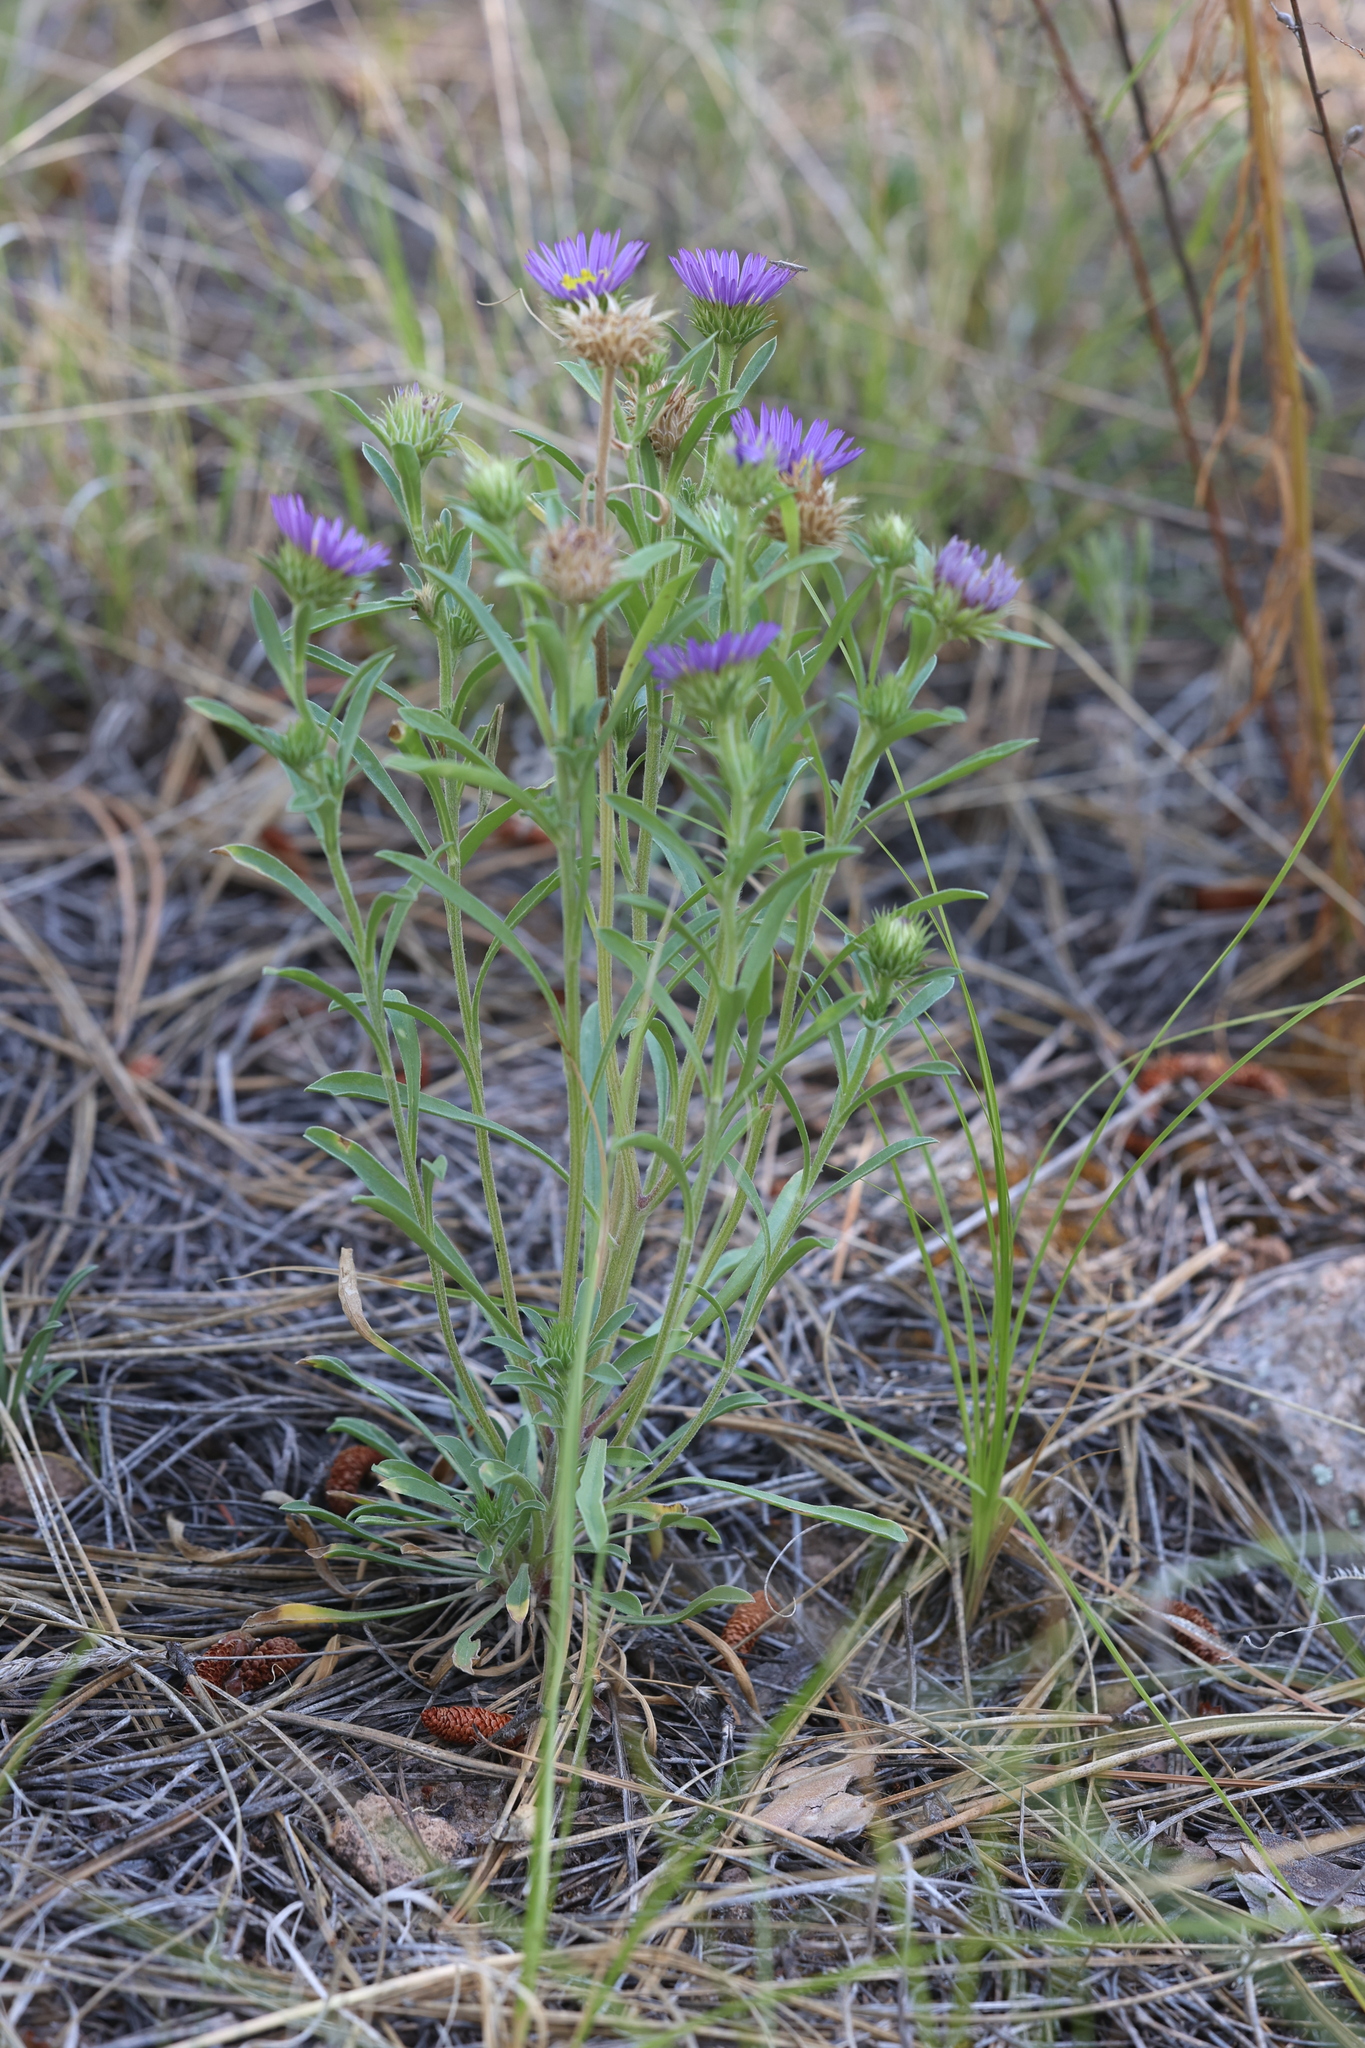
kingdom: Plantae
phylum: Tracheophyta
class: Magnoliopsida
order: Asterales
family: Asteraceae
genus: Townsendia
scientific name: Townsendia eximia
